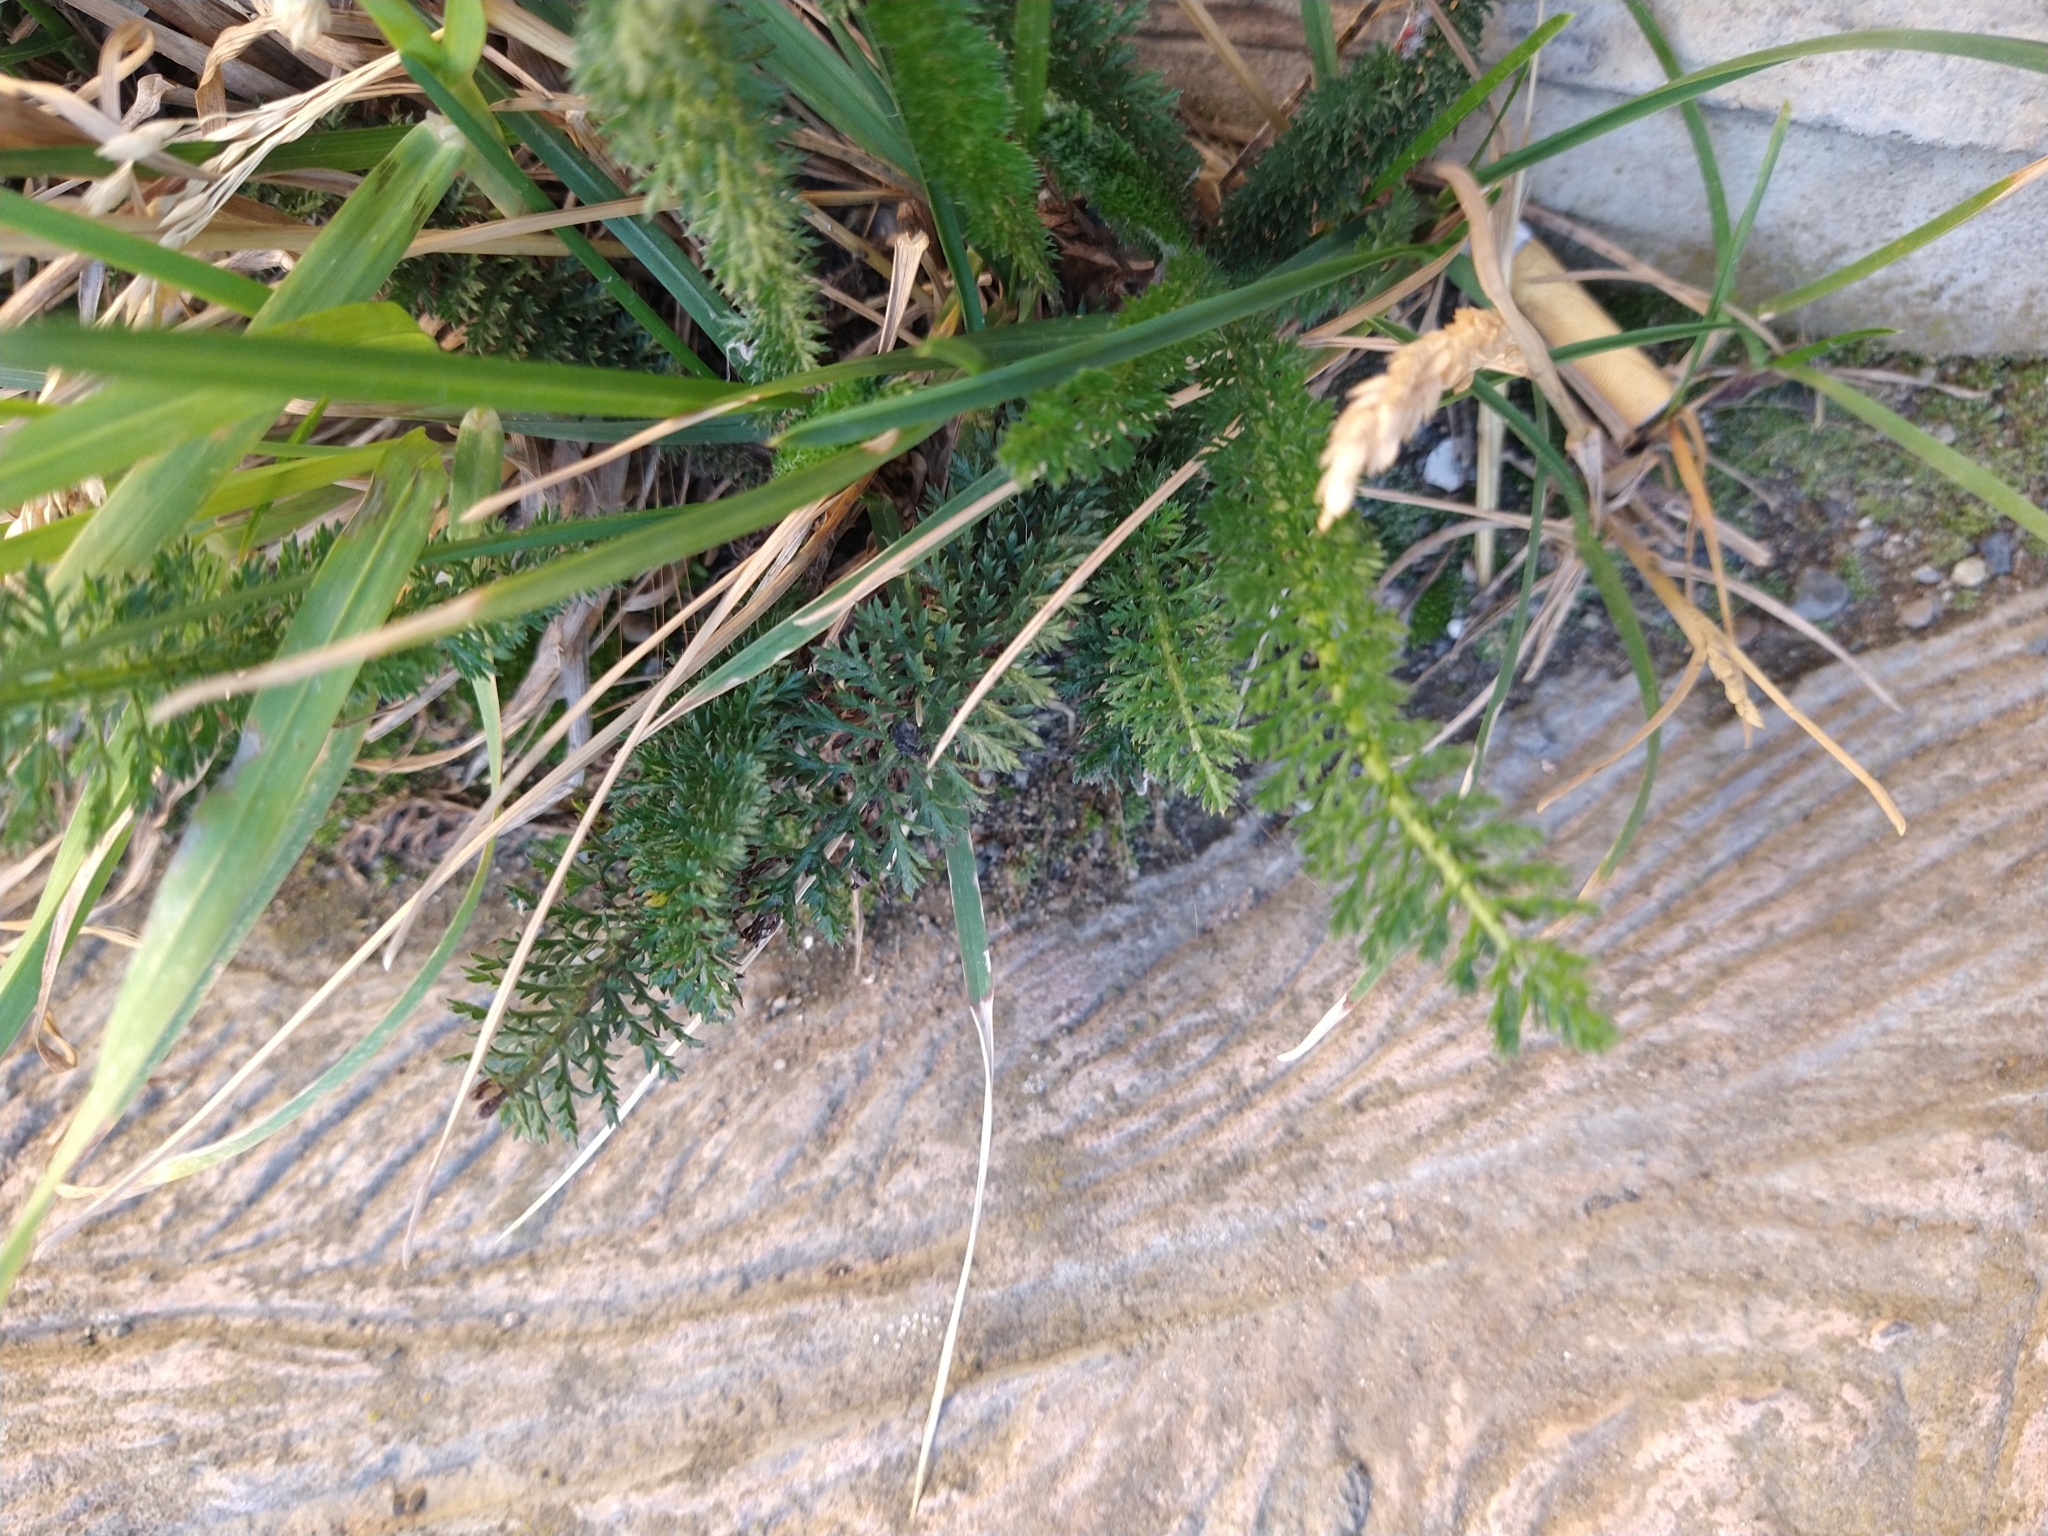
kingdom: Plantae
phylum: Tracheophyta
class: Magnoliopsida
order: Asterales
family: Asteraceae
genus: Achillea
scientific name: Achillea millefolium
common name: Yarrow
